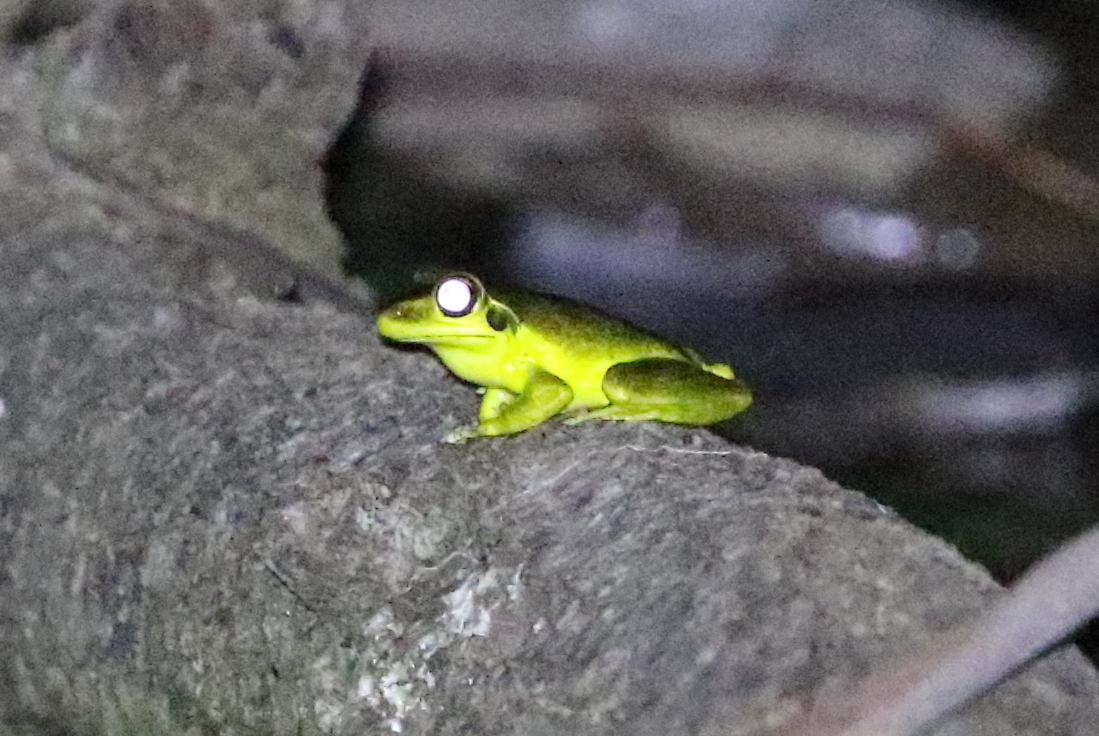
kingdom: Animalia
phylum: Chordata
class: Amphibia
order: Anura
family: Pelodryadidae
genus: Ranoidea
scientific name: Ranoidea wilcoxii
